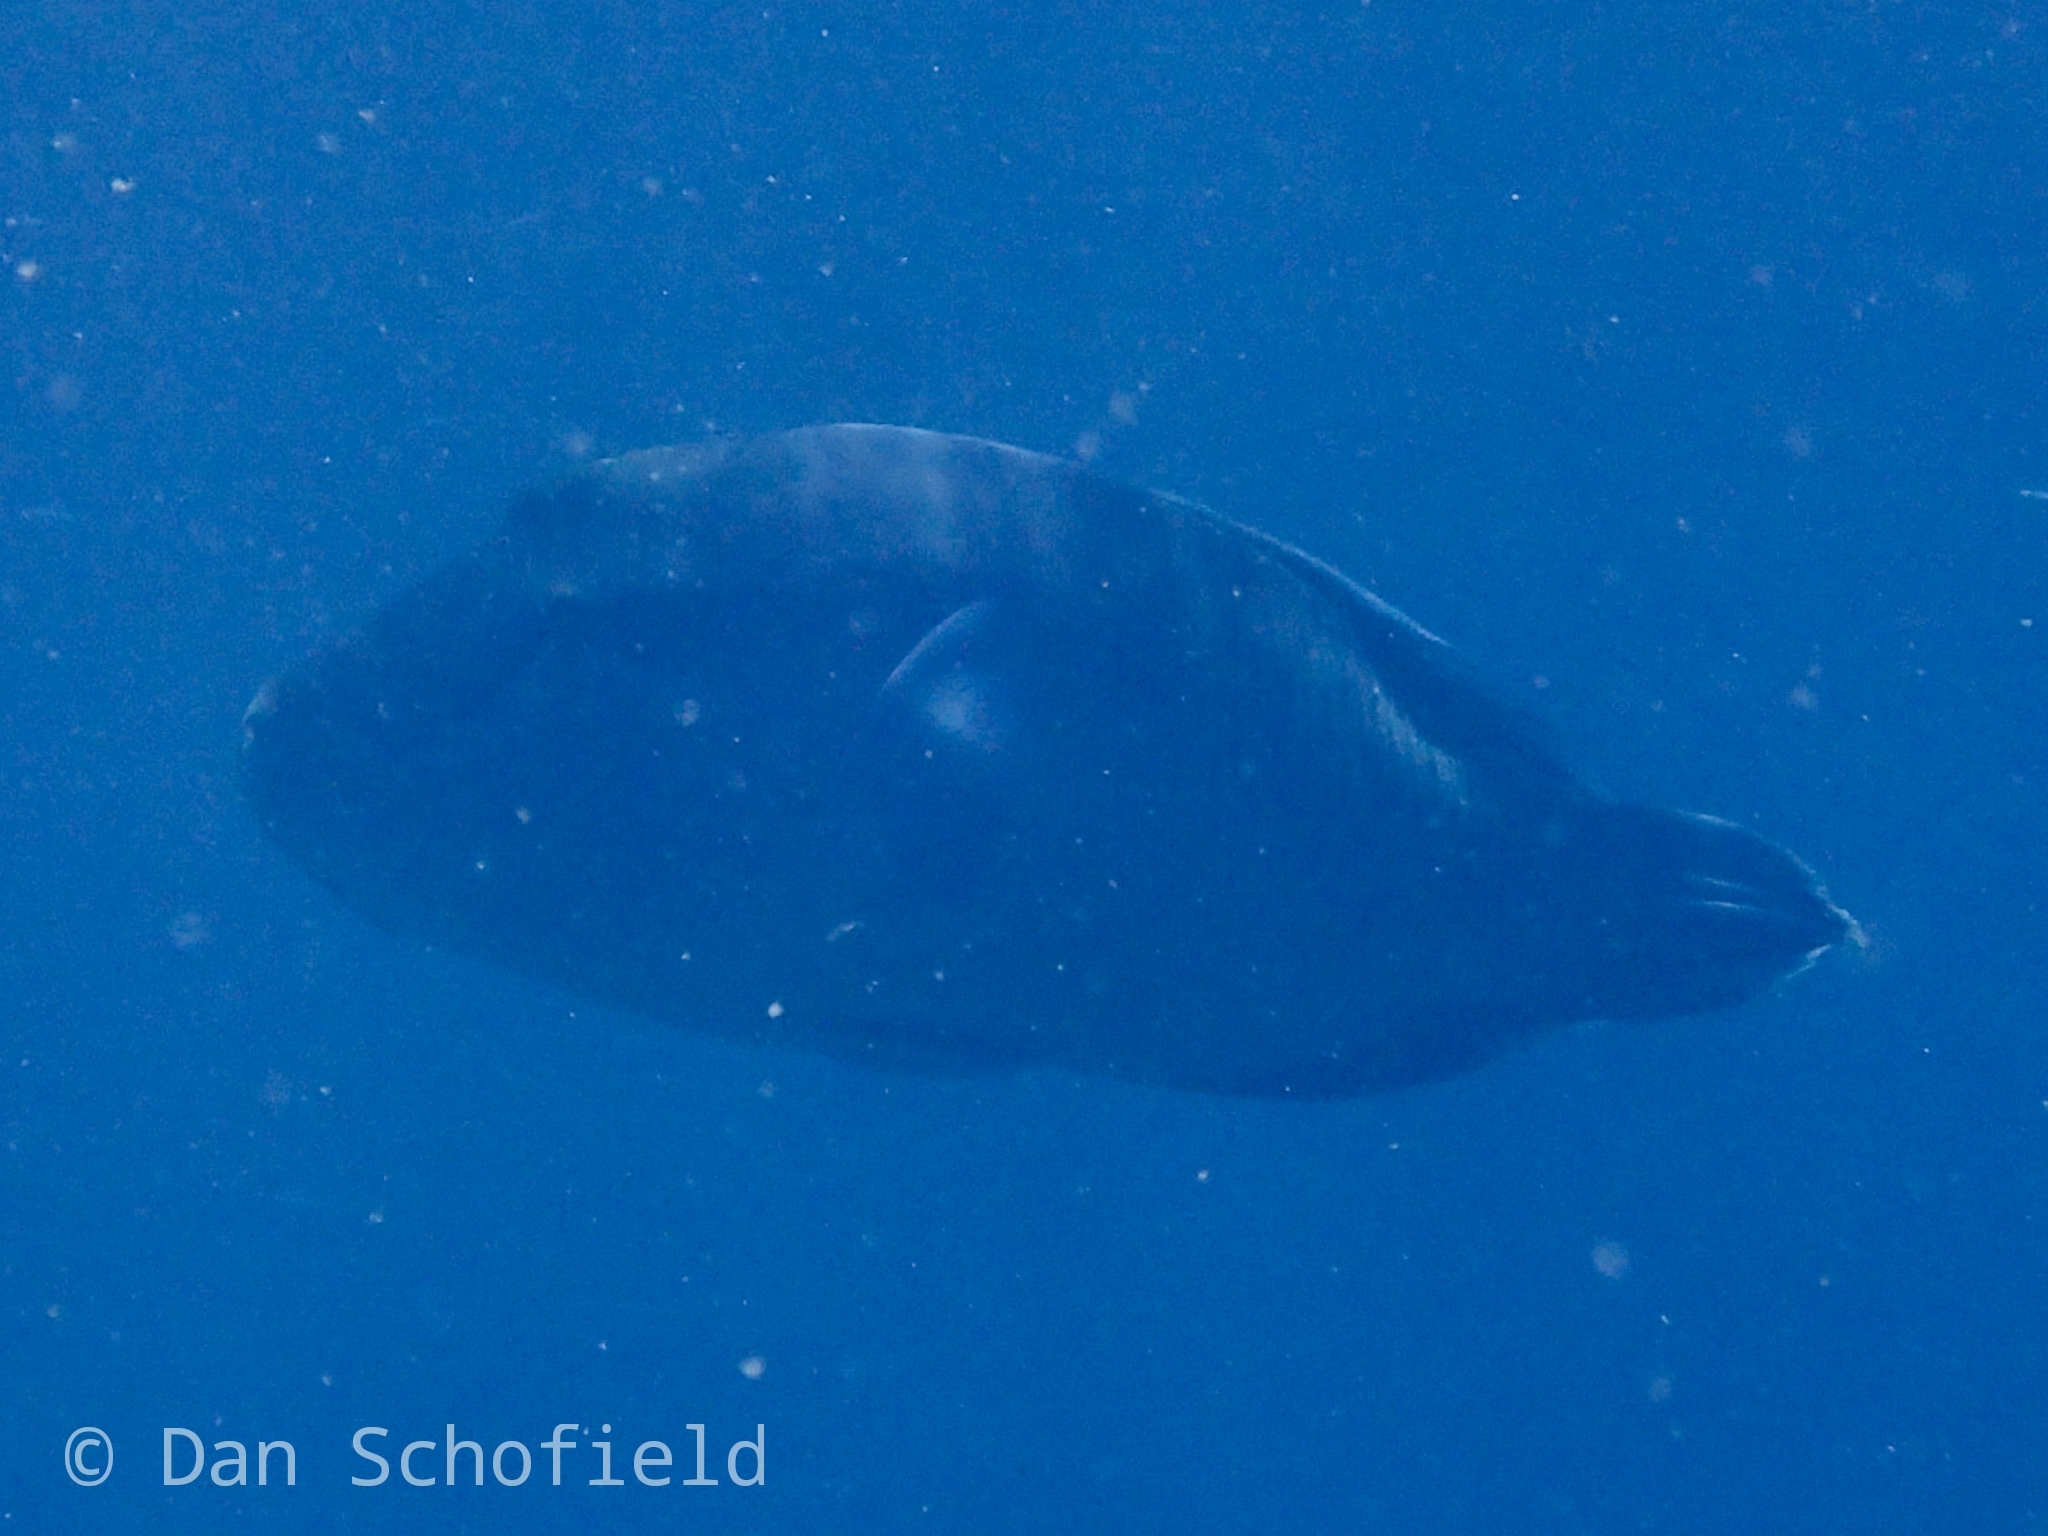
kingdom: Animalia
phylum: Chordata
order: Perciformes
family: Labridae
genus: Cheilinus
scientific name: Cheilinus undulatus
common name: Humphead wrasse
